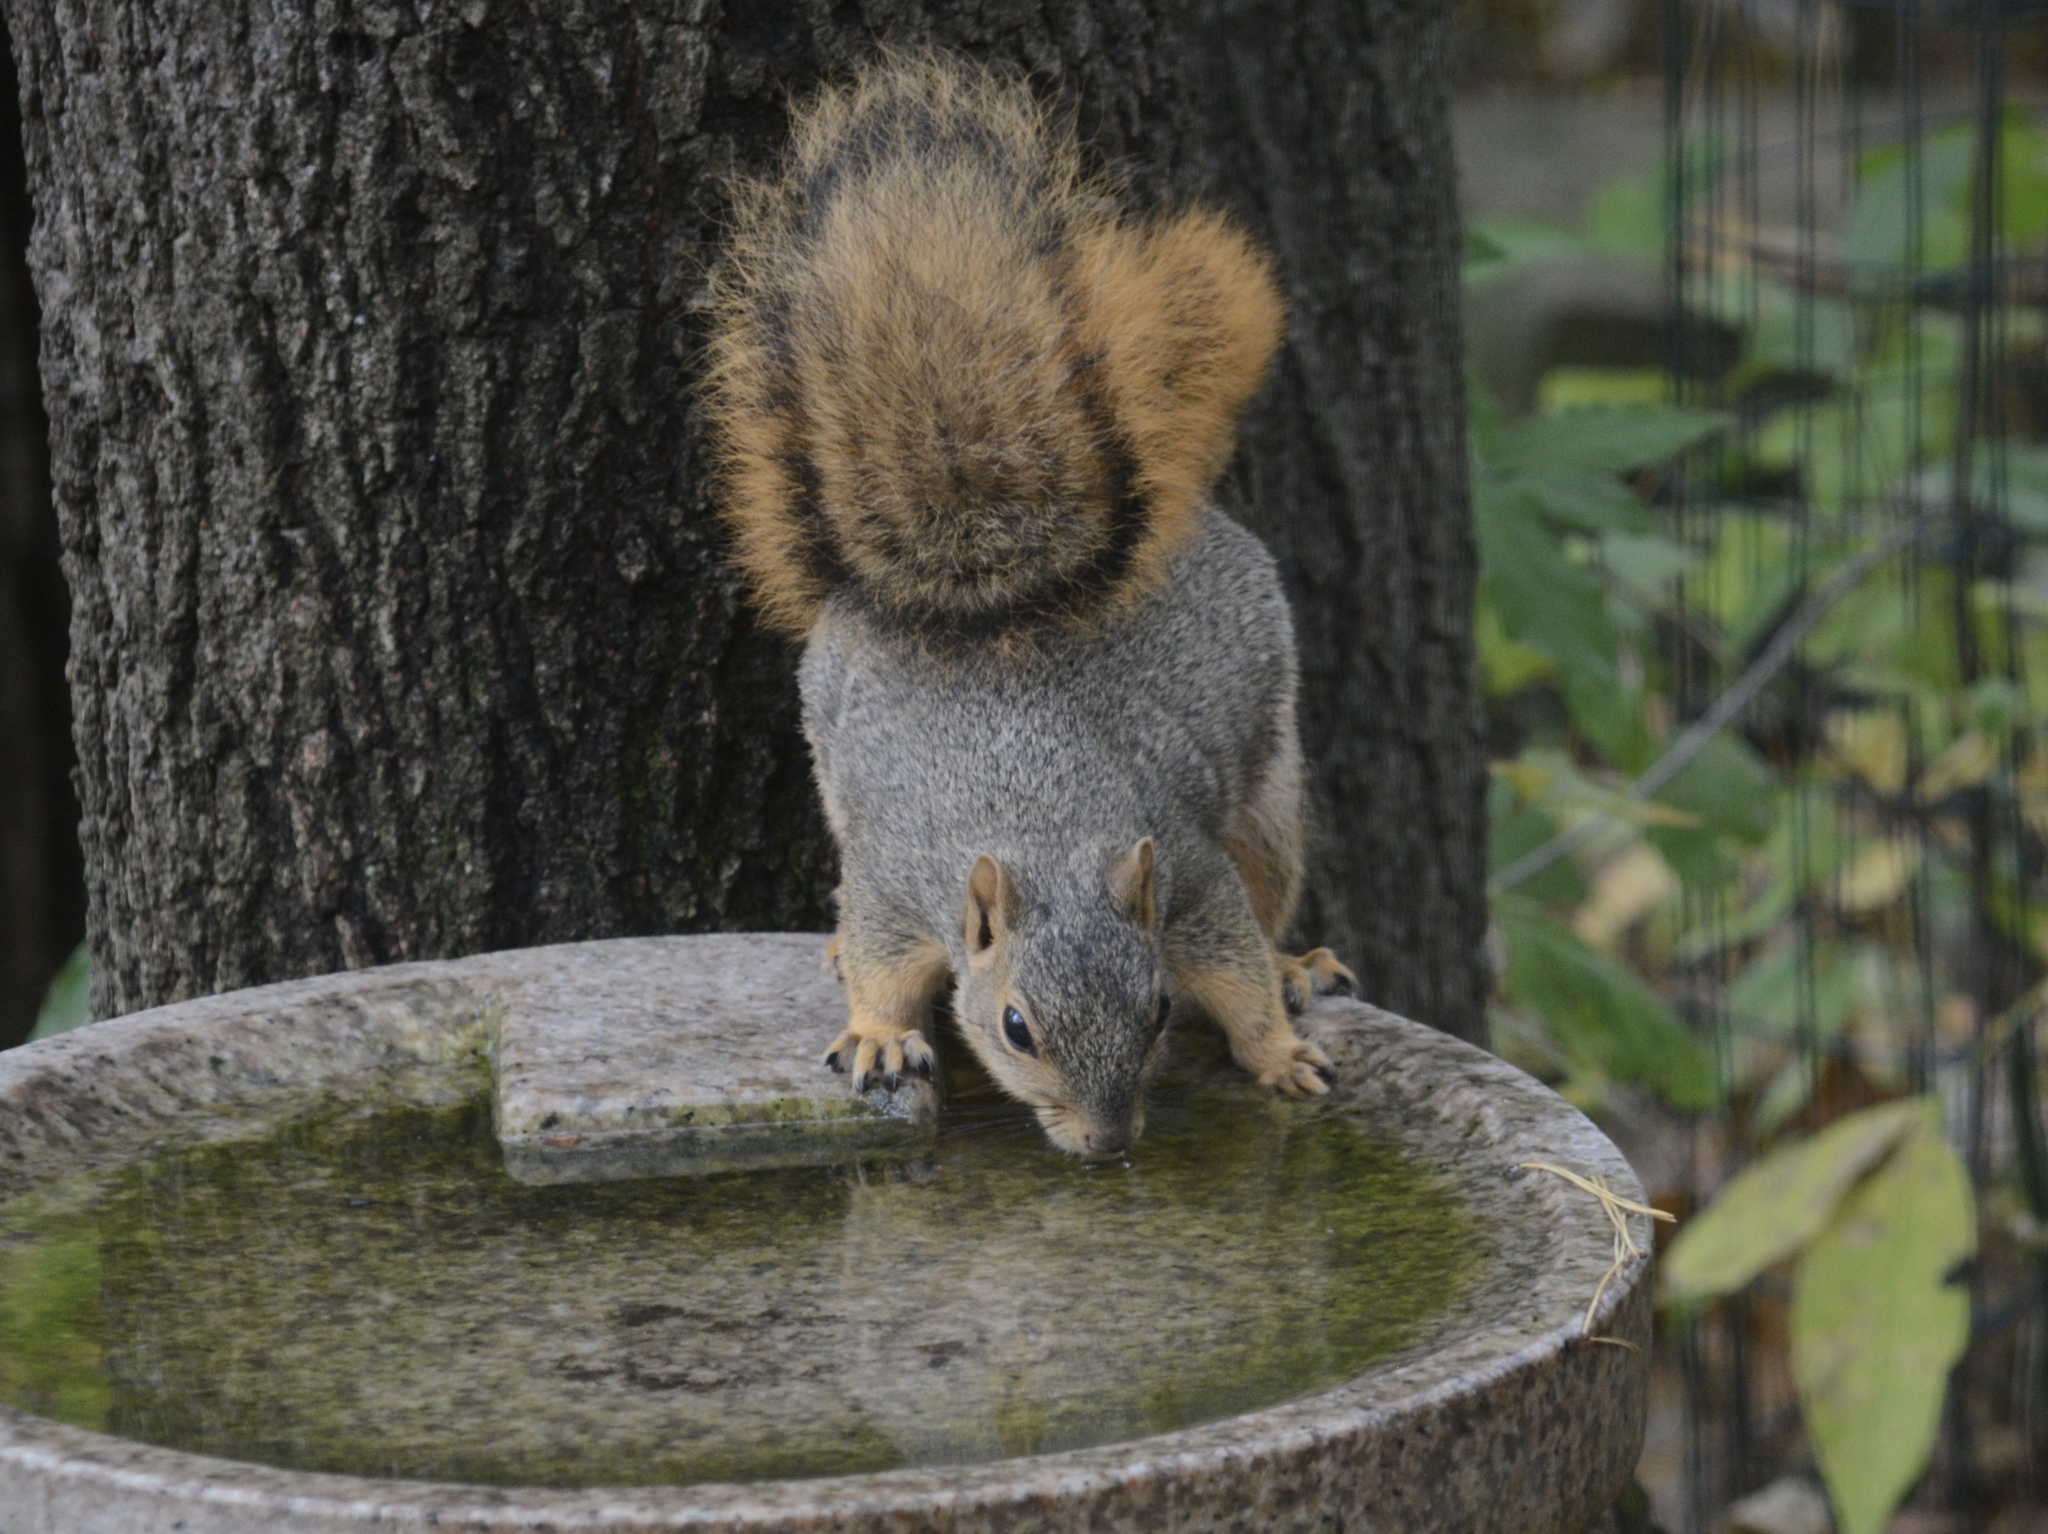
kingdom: Animalia
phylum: Chordata
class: Mammalia
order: Rodentia
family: Sciuridae
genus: Sciurus
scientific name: Sciurus niger
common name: Fox squirrel
